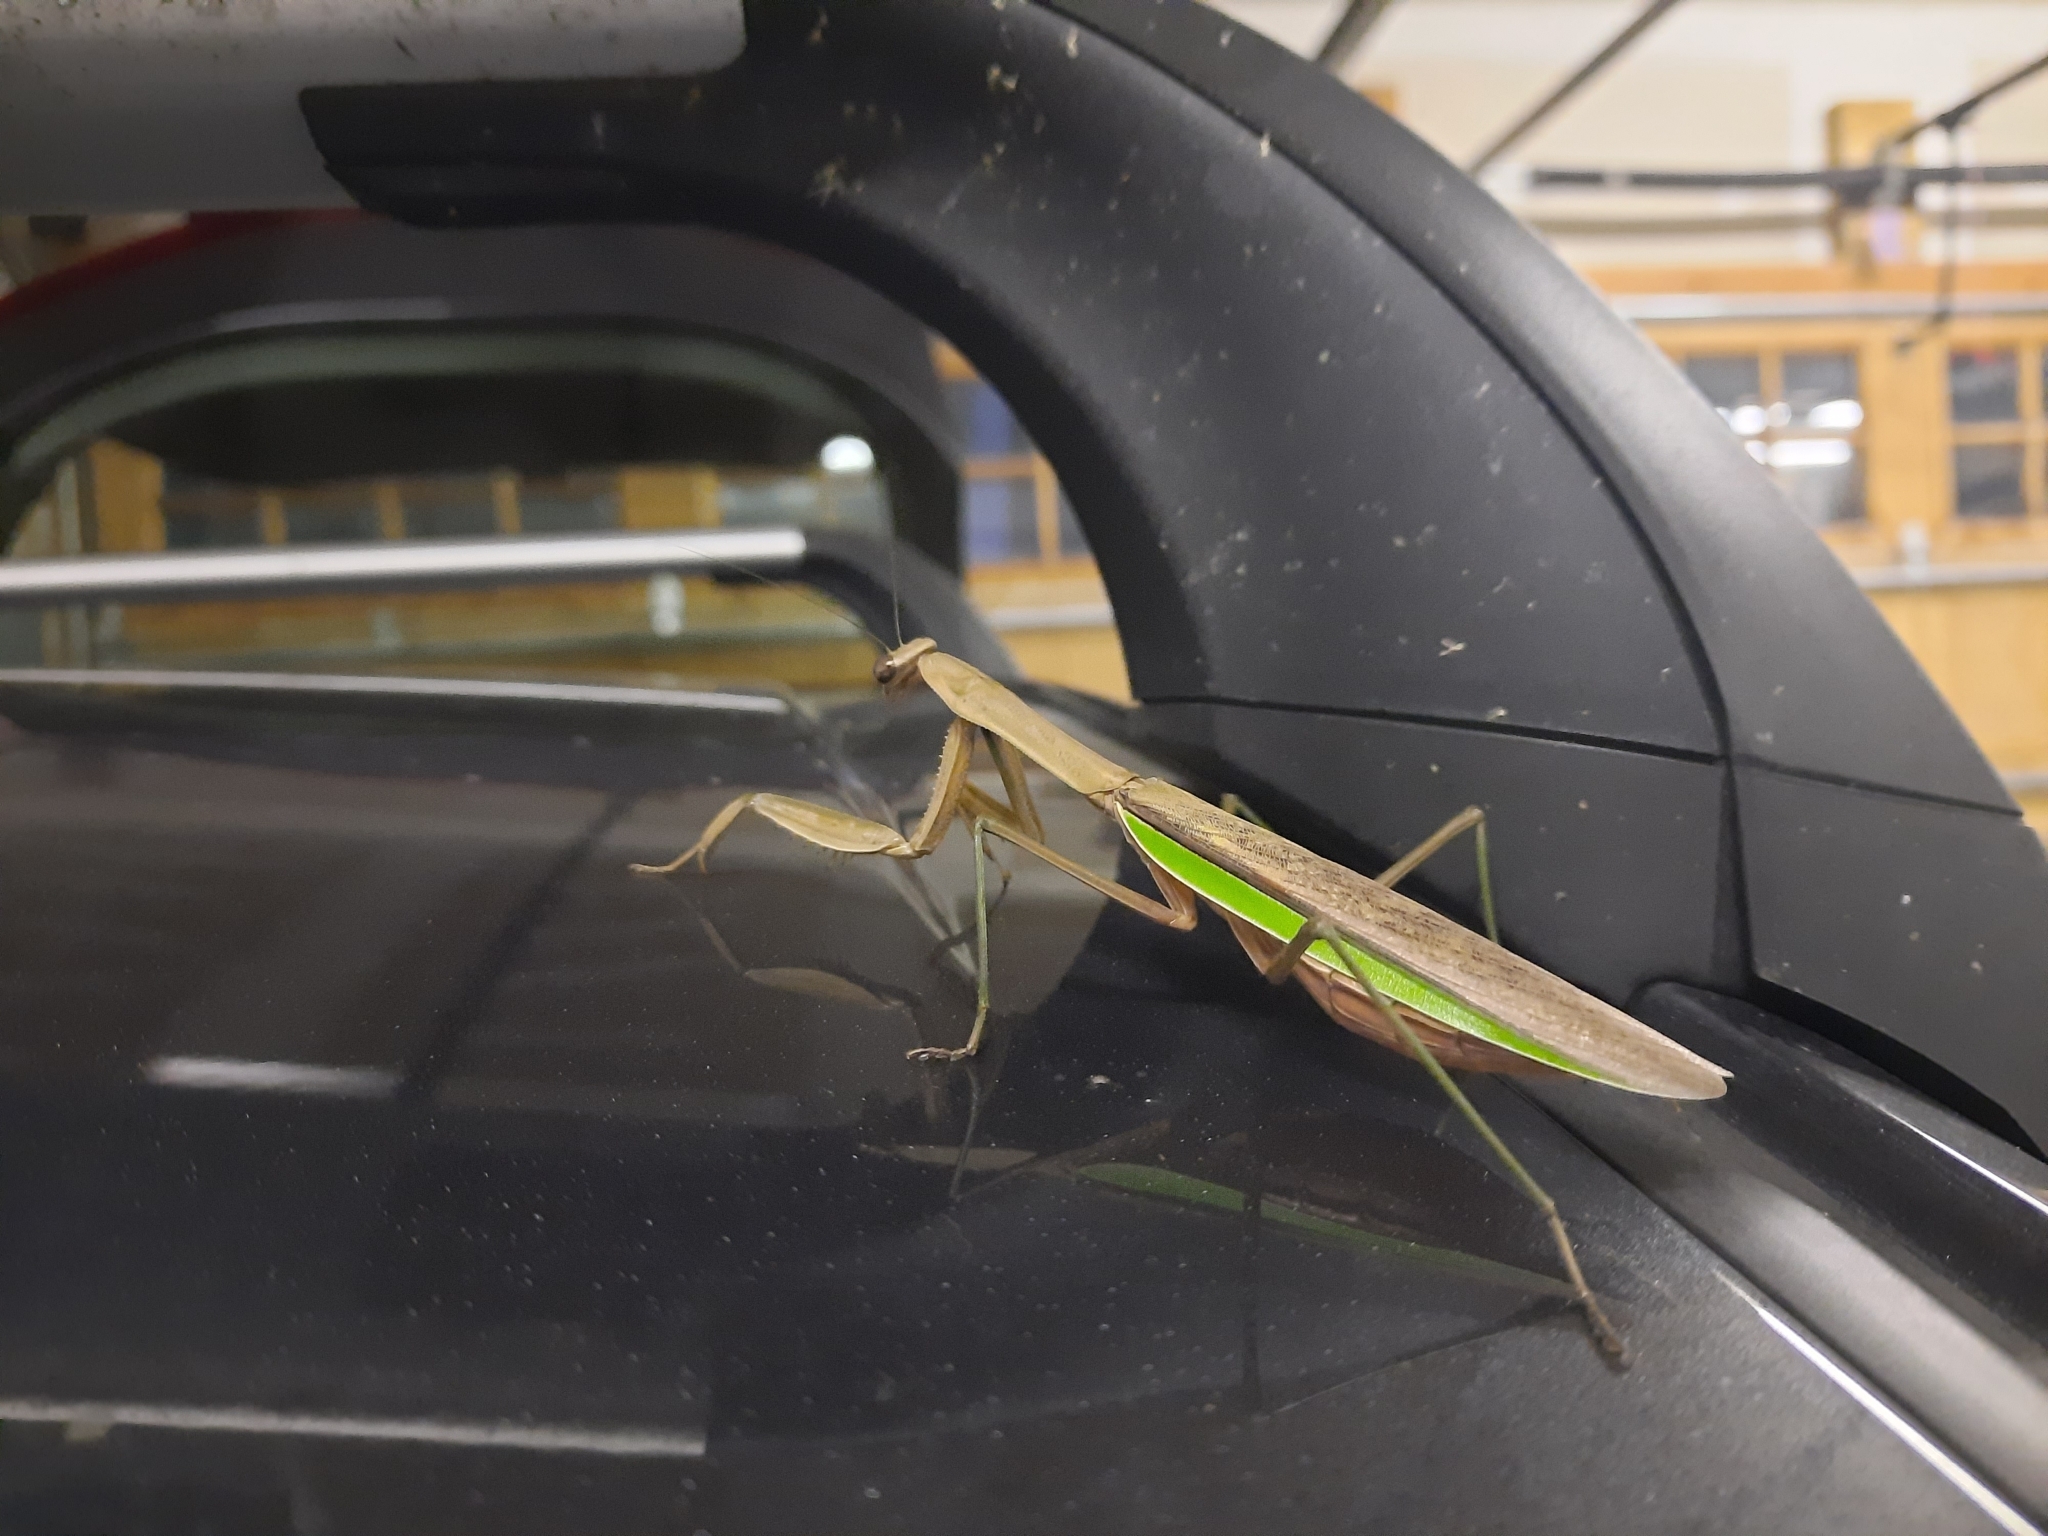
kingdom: Animalia
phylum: Arthropoda
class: Insecta
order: Mantodea
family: Mantidae
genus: Tenodera
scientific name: Tenodera sinensis
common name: Chinese mantis
